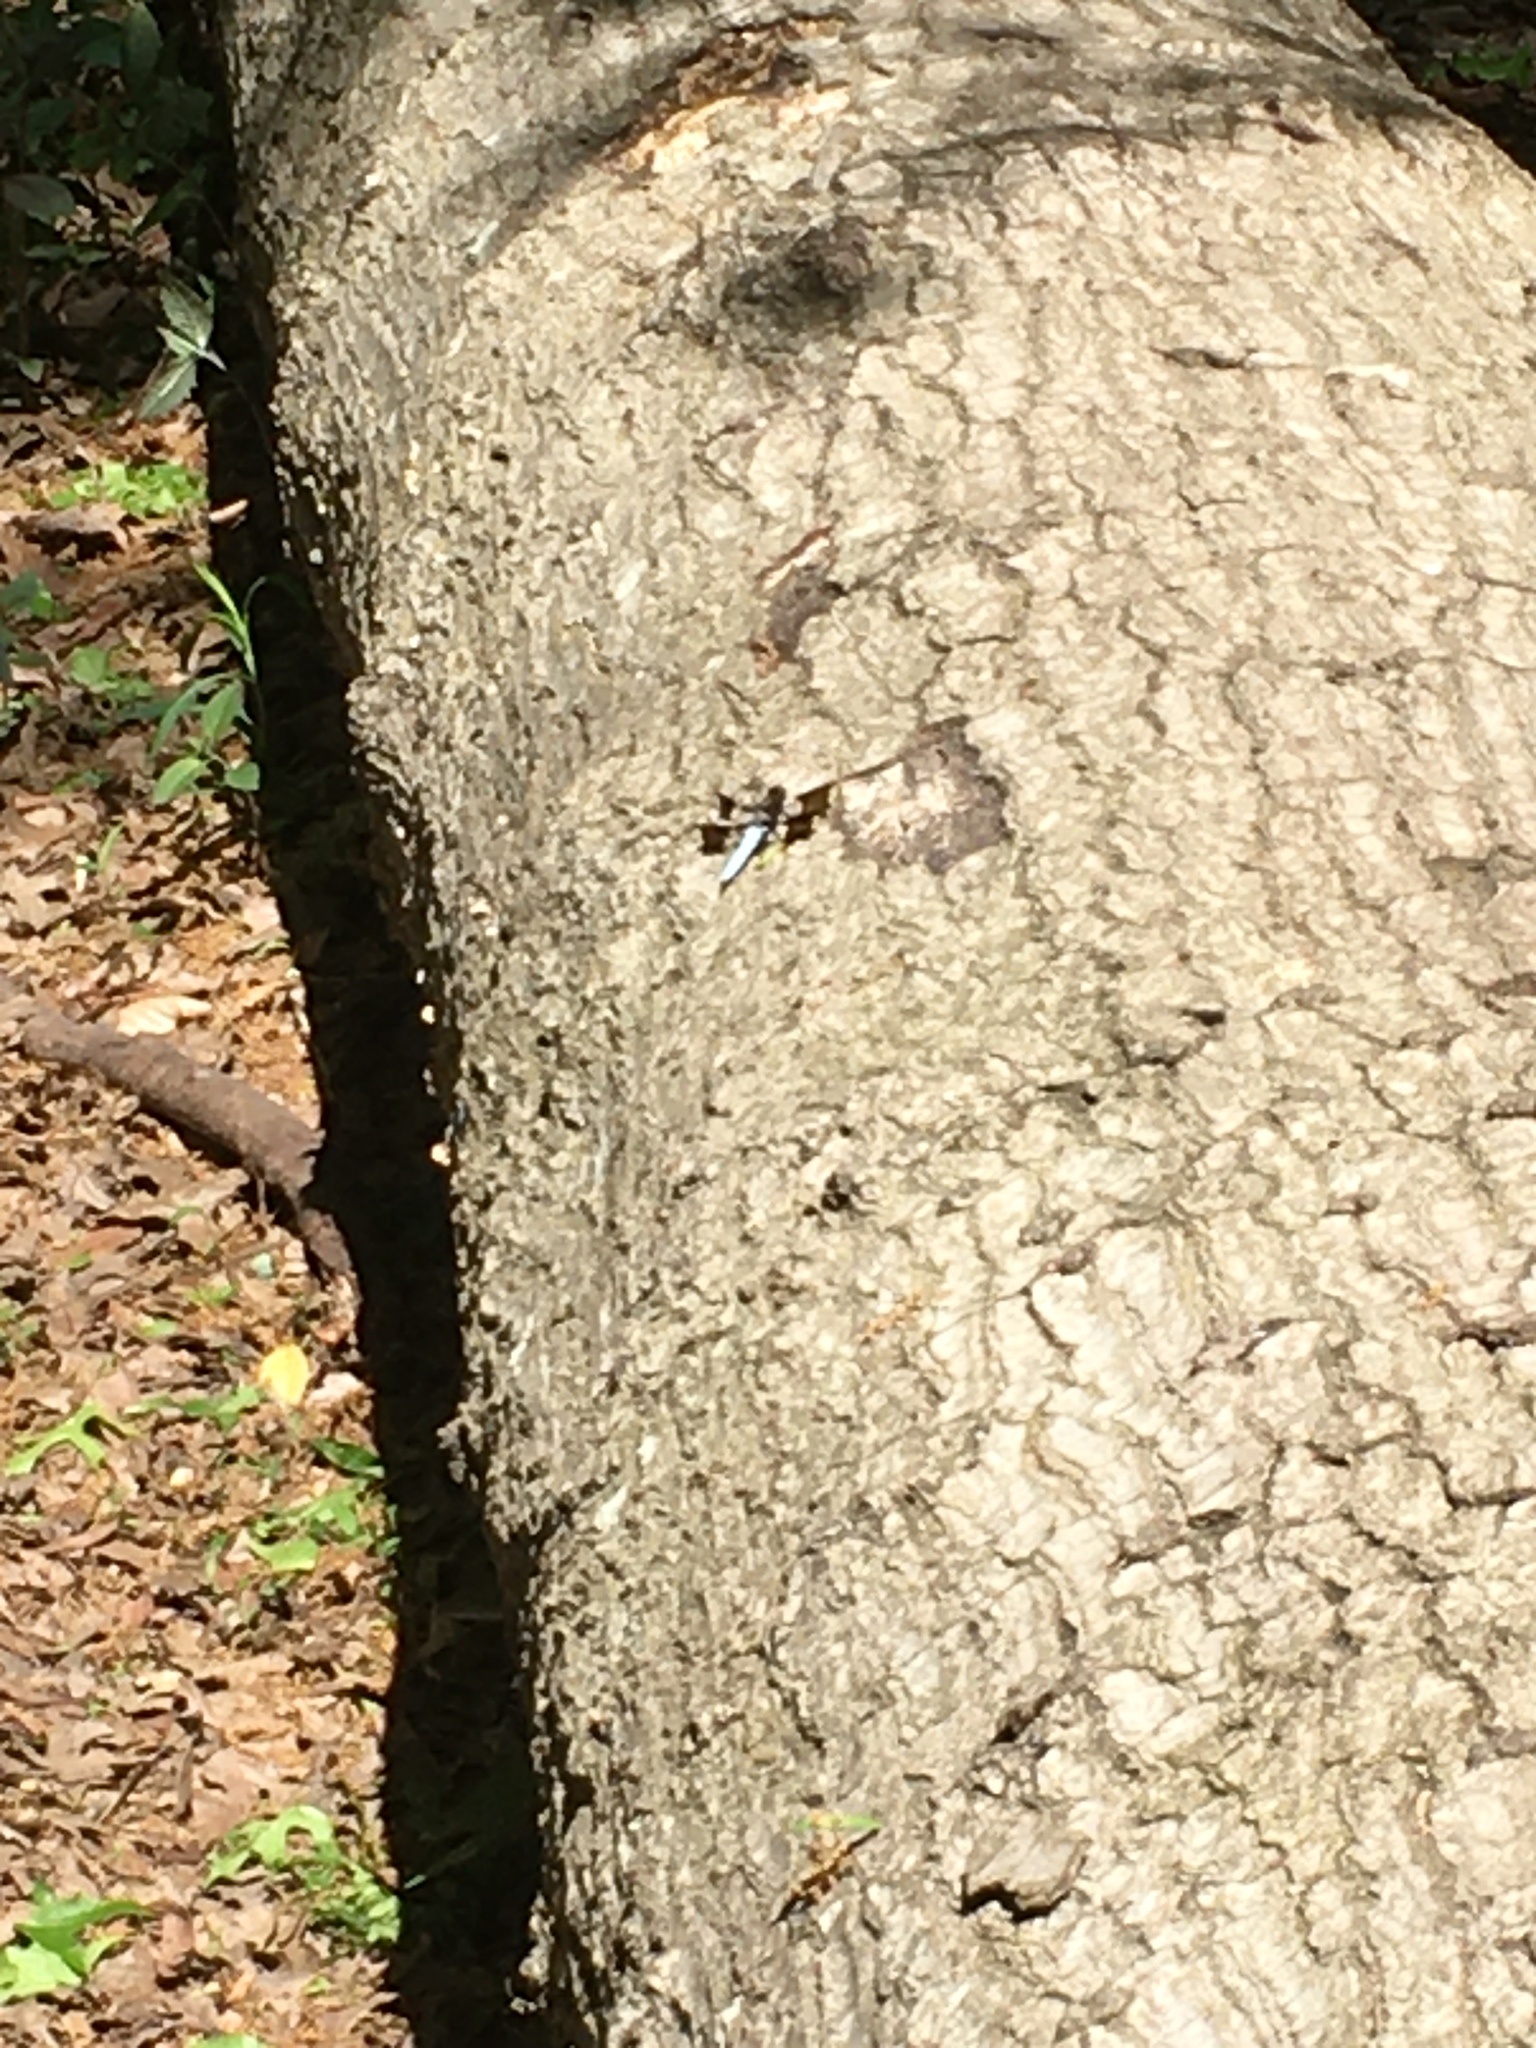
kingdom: Animalia
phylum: Arthropoda
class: Insecta
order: Odonata
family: Libellulidae
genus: Plathemis
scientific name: Plathemis lydia
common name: Common whitetail
